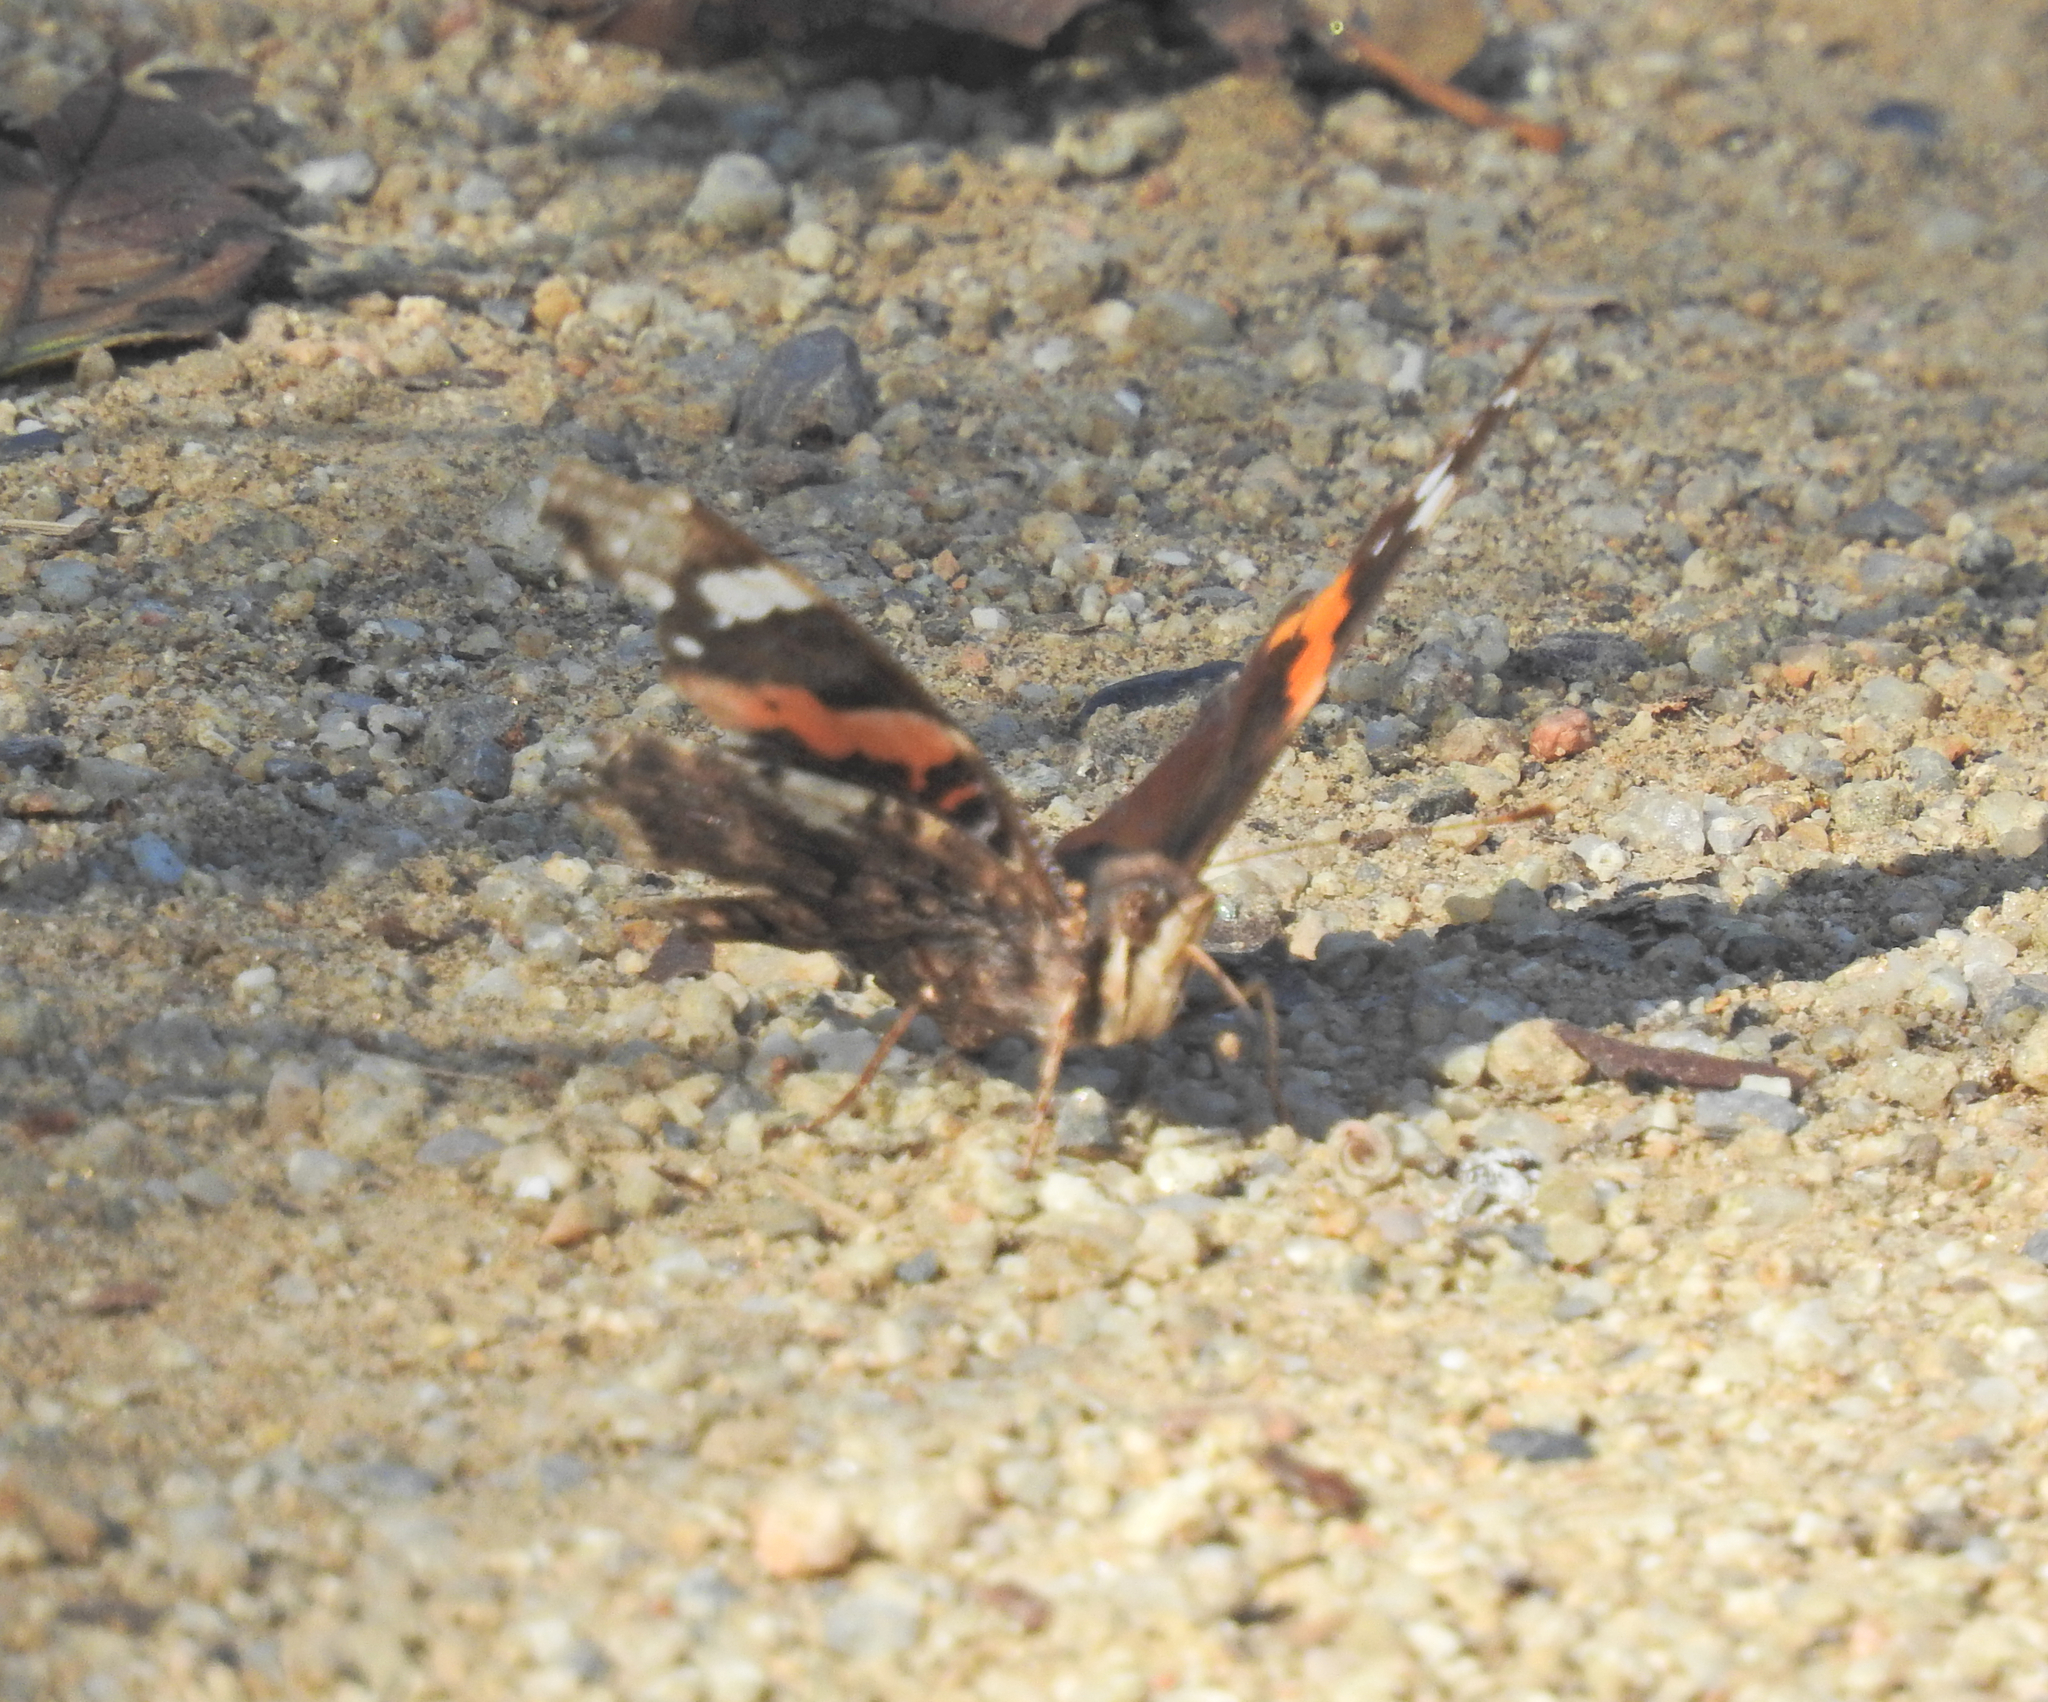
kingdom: Animalia
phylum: Arthropoda
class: Insecta
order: Lepidoptera
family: Nymphalidae
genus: Vanessa
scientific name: Vanessa atalanta
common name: Red admiral
